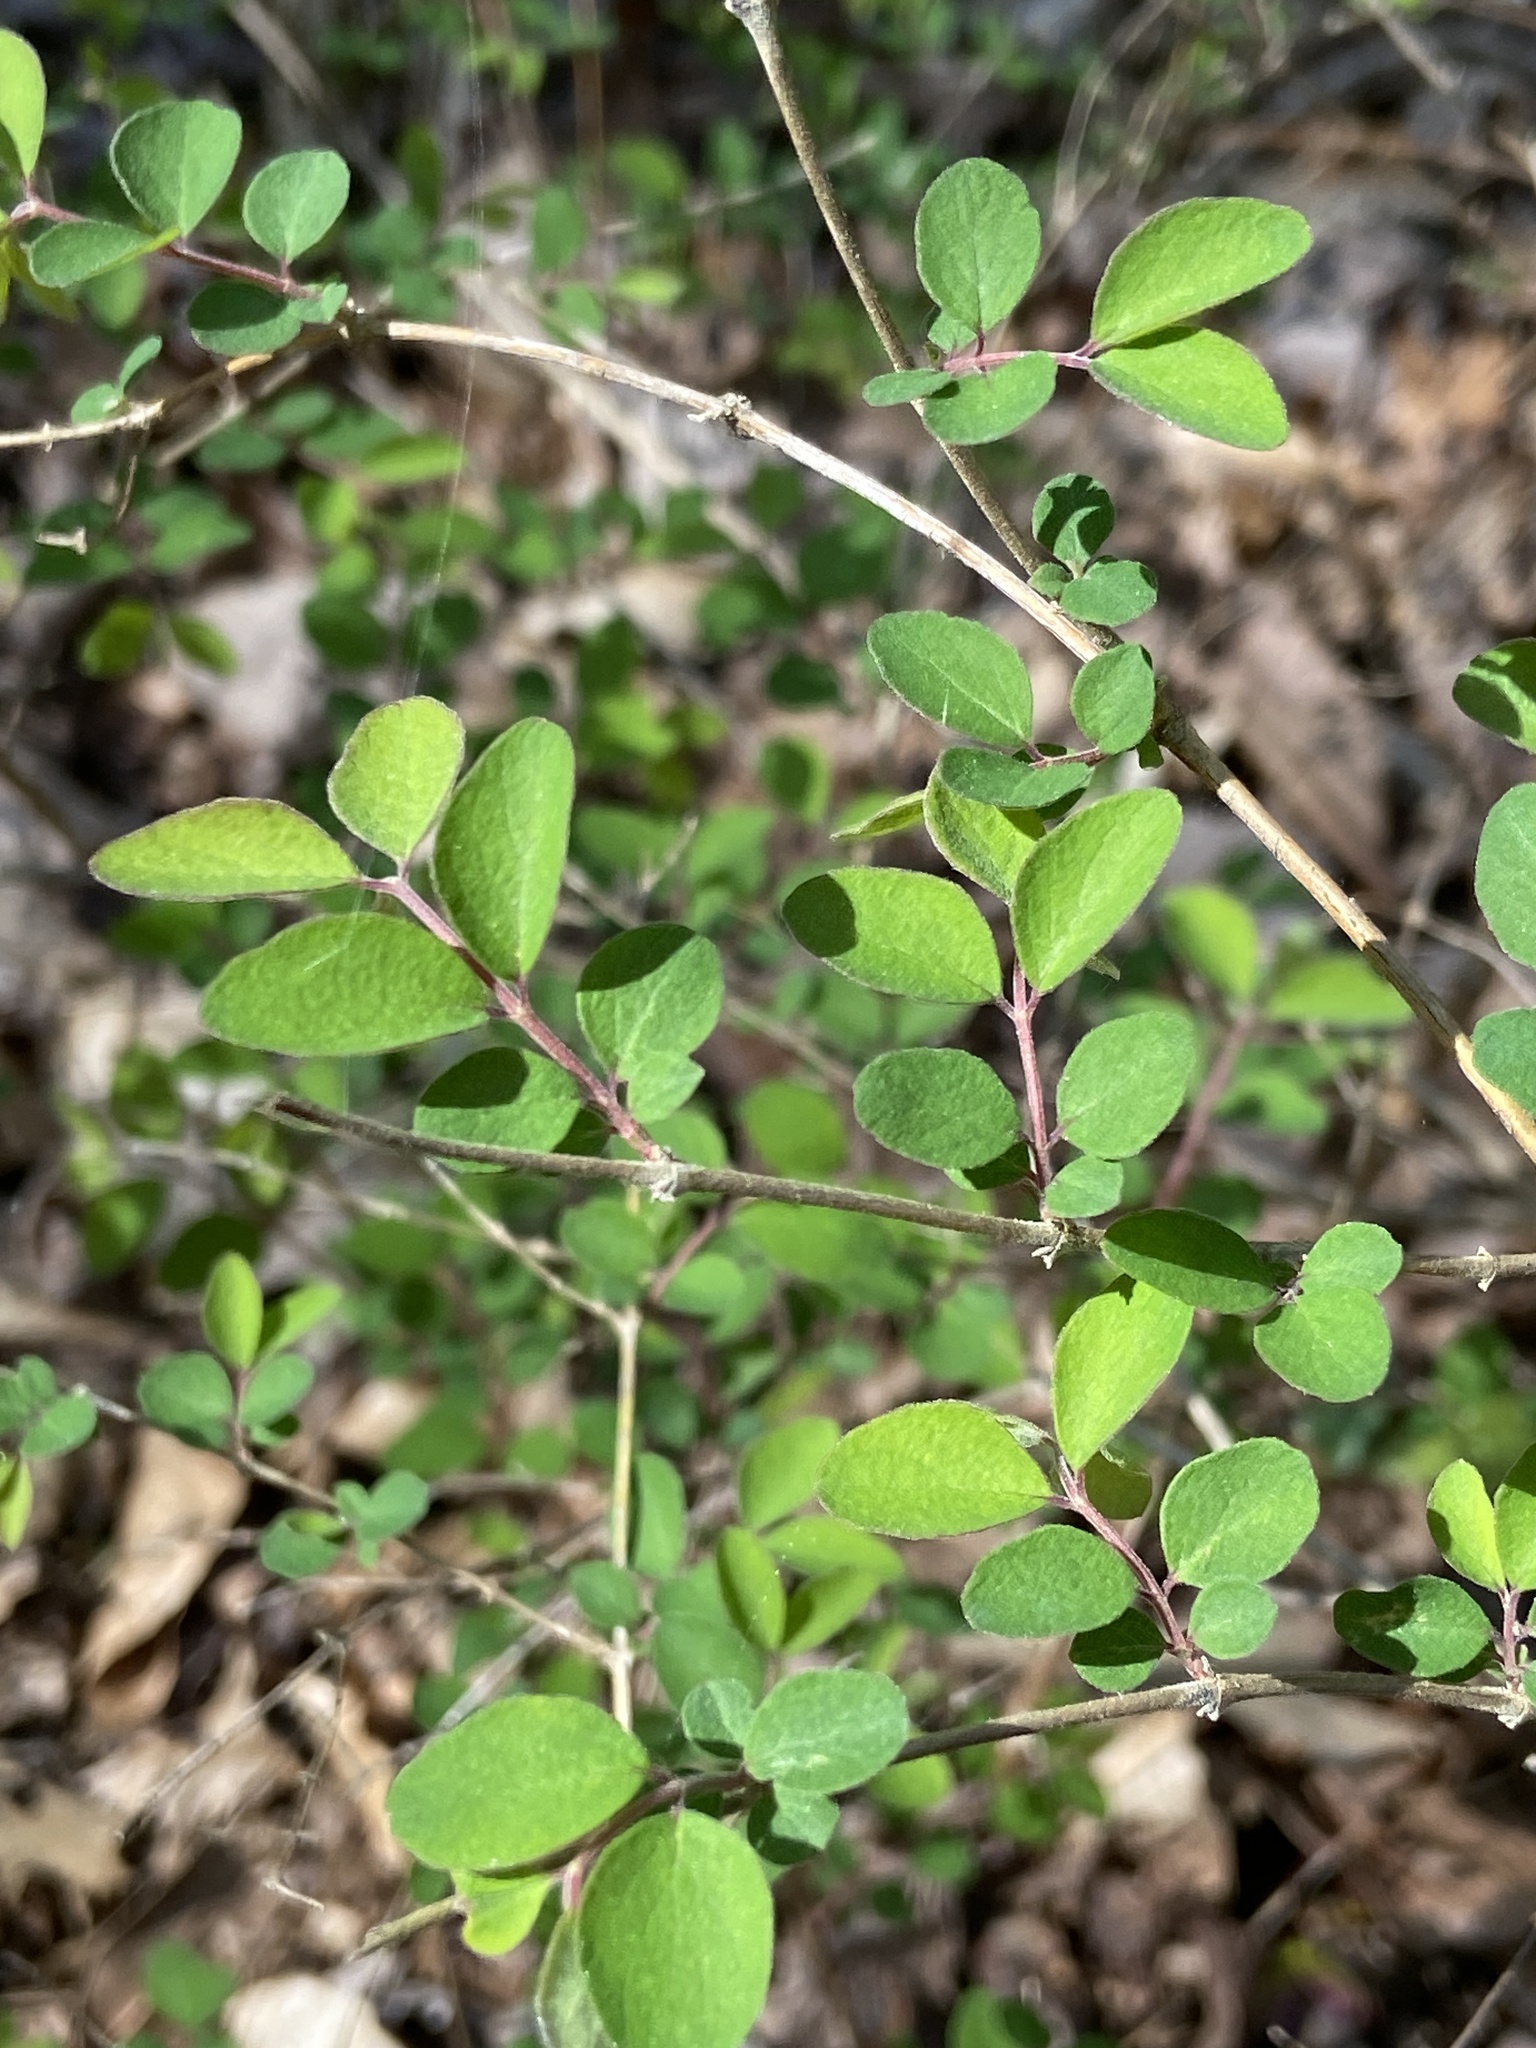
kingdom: Plantae
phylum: Tracheophyta
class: Magnoliopsida
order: Dipsacales
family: Caprifoliaceae
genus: Symphoricarpos
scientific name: Symphoricarpos orbiculatus
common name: Coralberry
